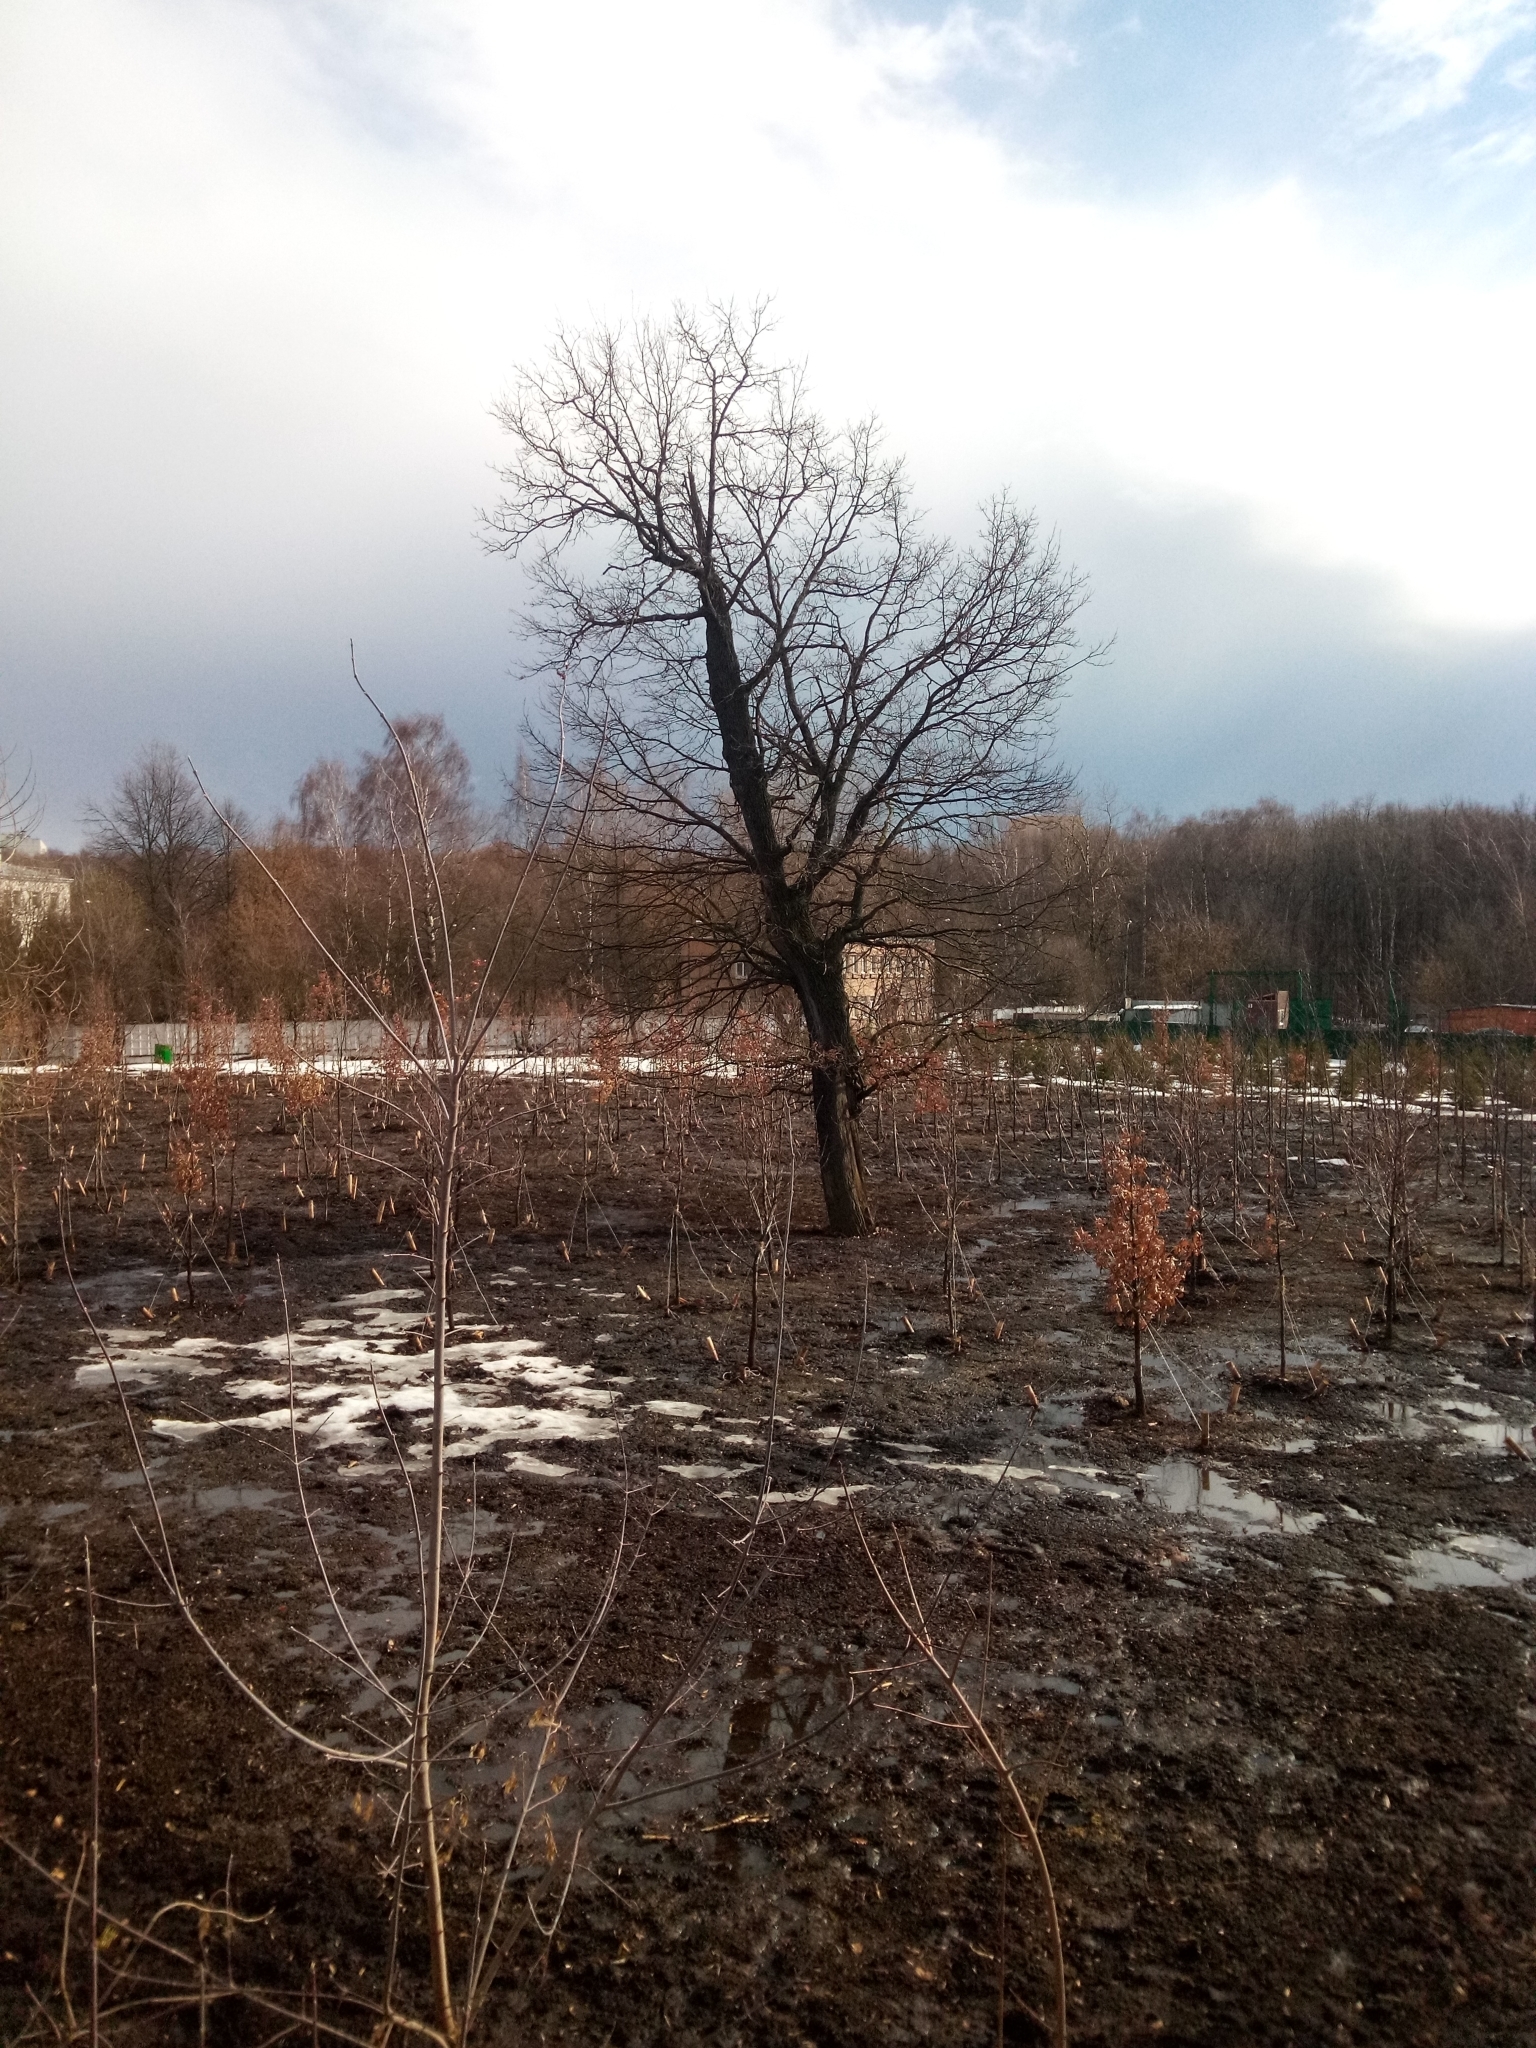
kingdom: Plantae
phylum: Tracheophyta
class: Magnoliopsida
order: Fagales
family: Fagaceae
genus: Quercus
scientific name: Quercus robur
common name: Pedunculate oak
